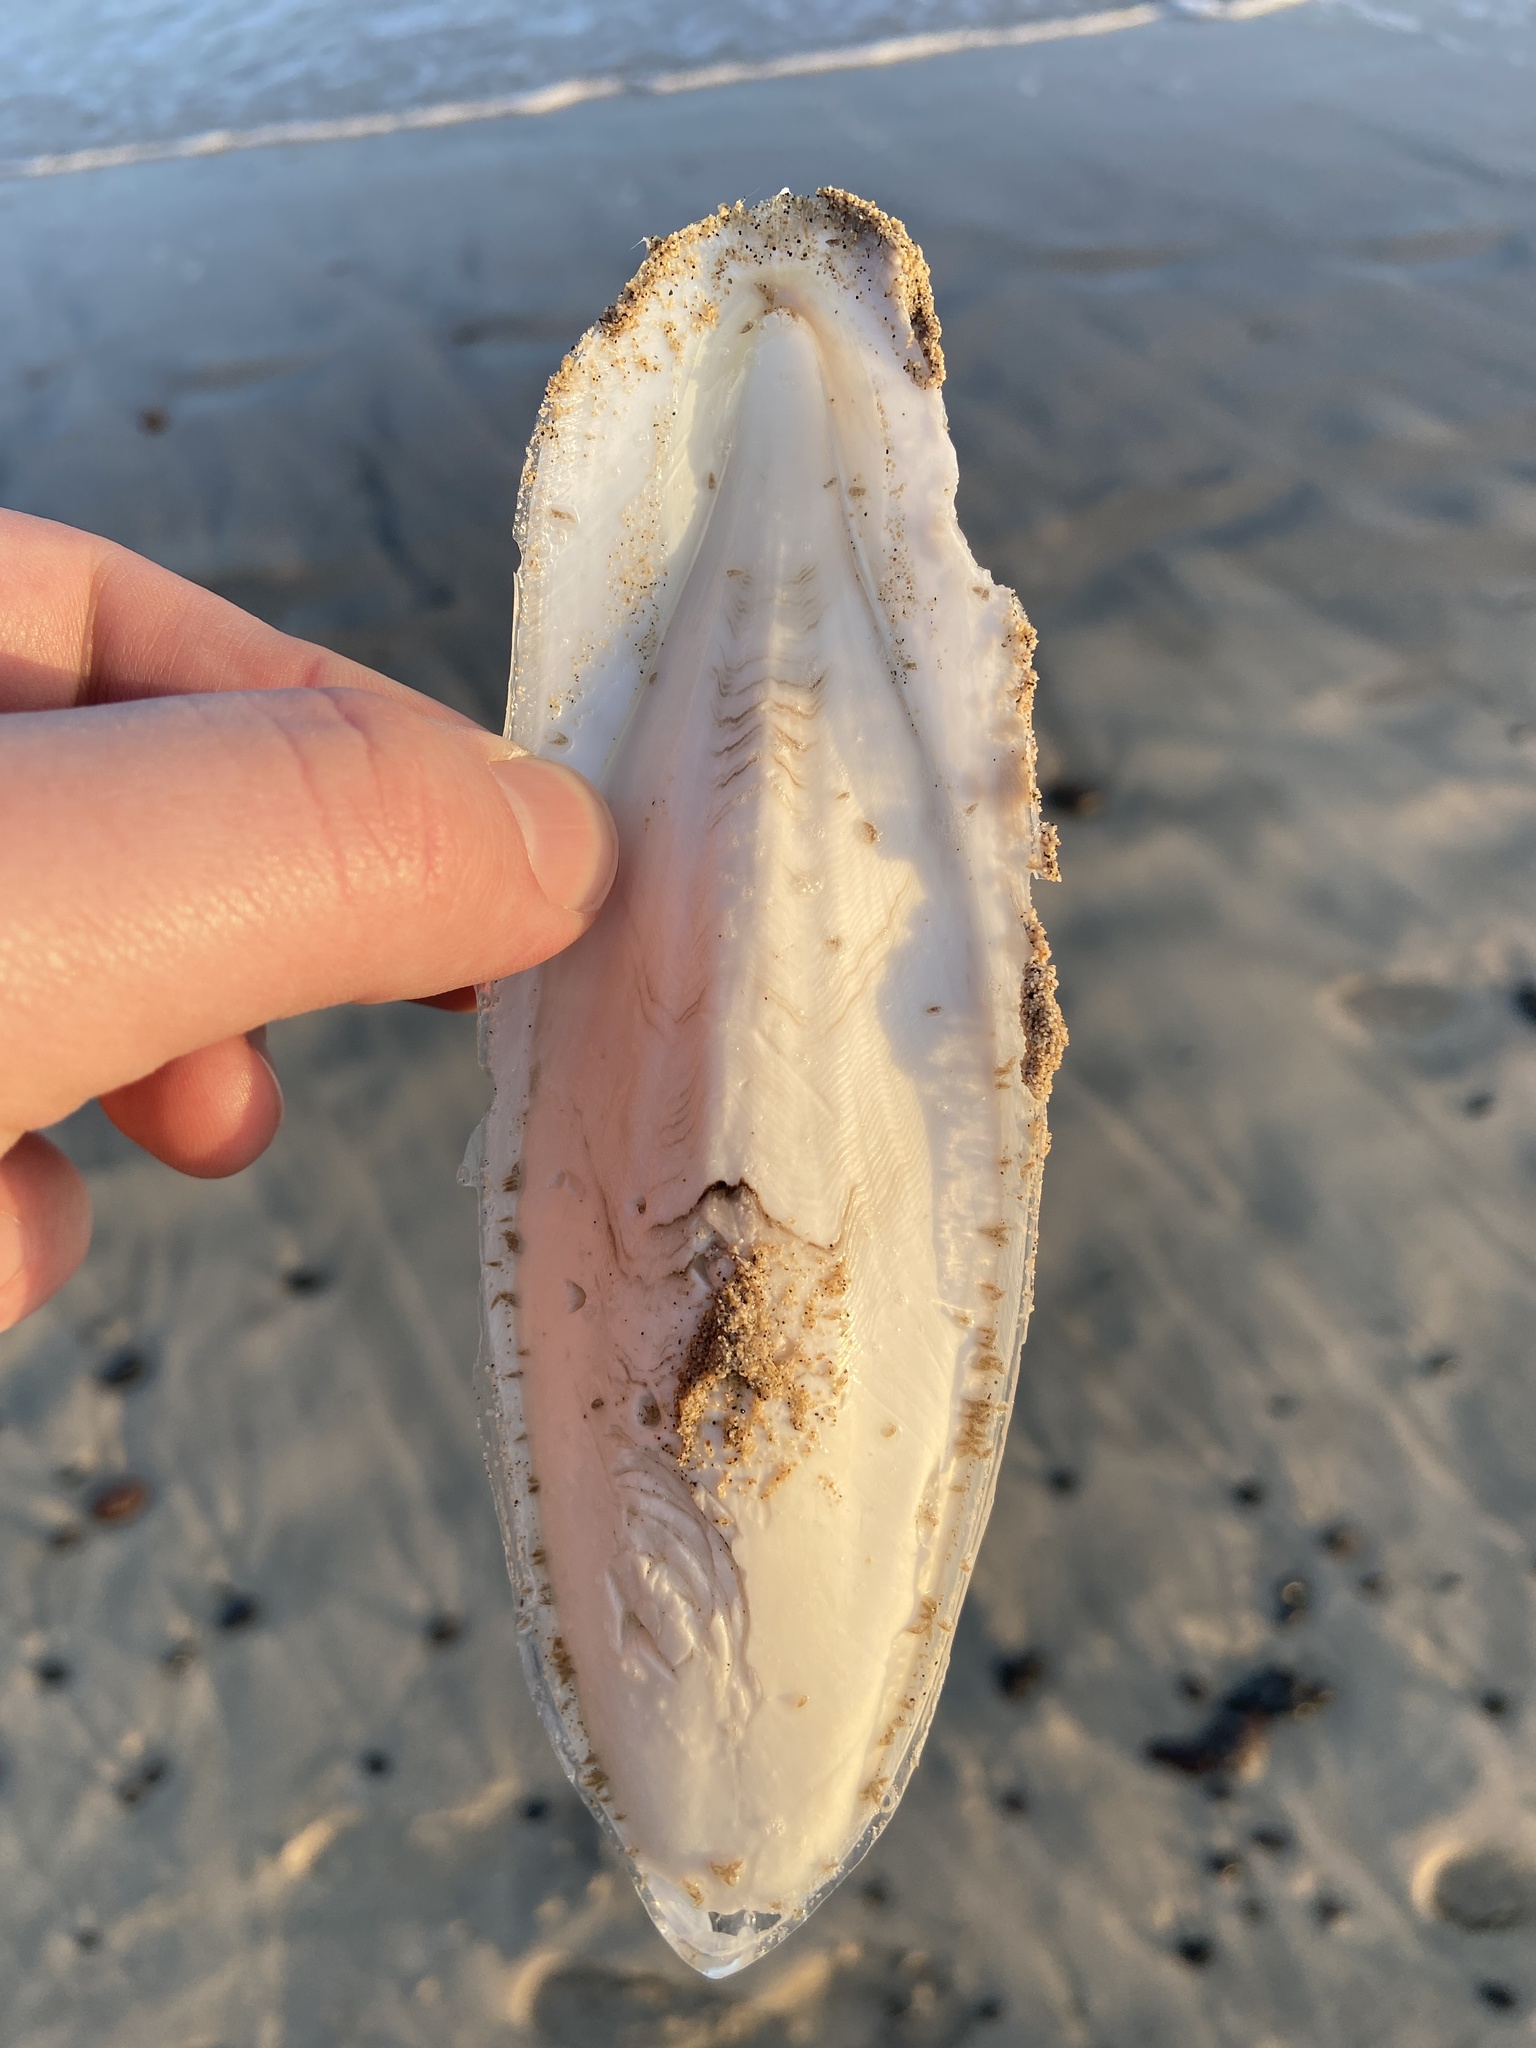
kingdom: Animalia
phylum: Mollusca
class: Cephalopoda
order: Sepiida
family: Sepiidae
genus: Sepia
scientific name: Sepia officinalis
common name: Common cuttlefish
